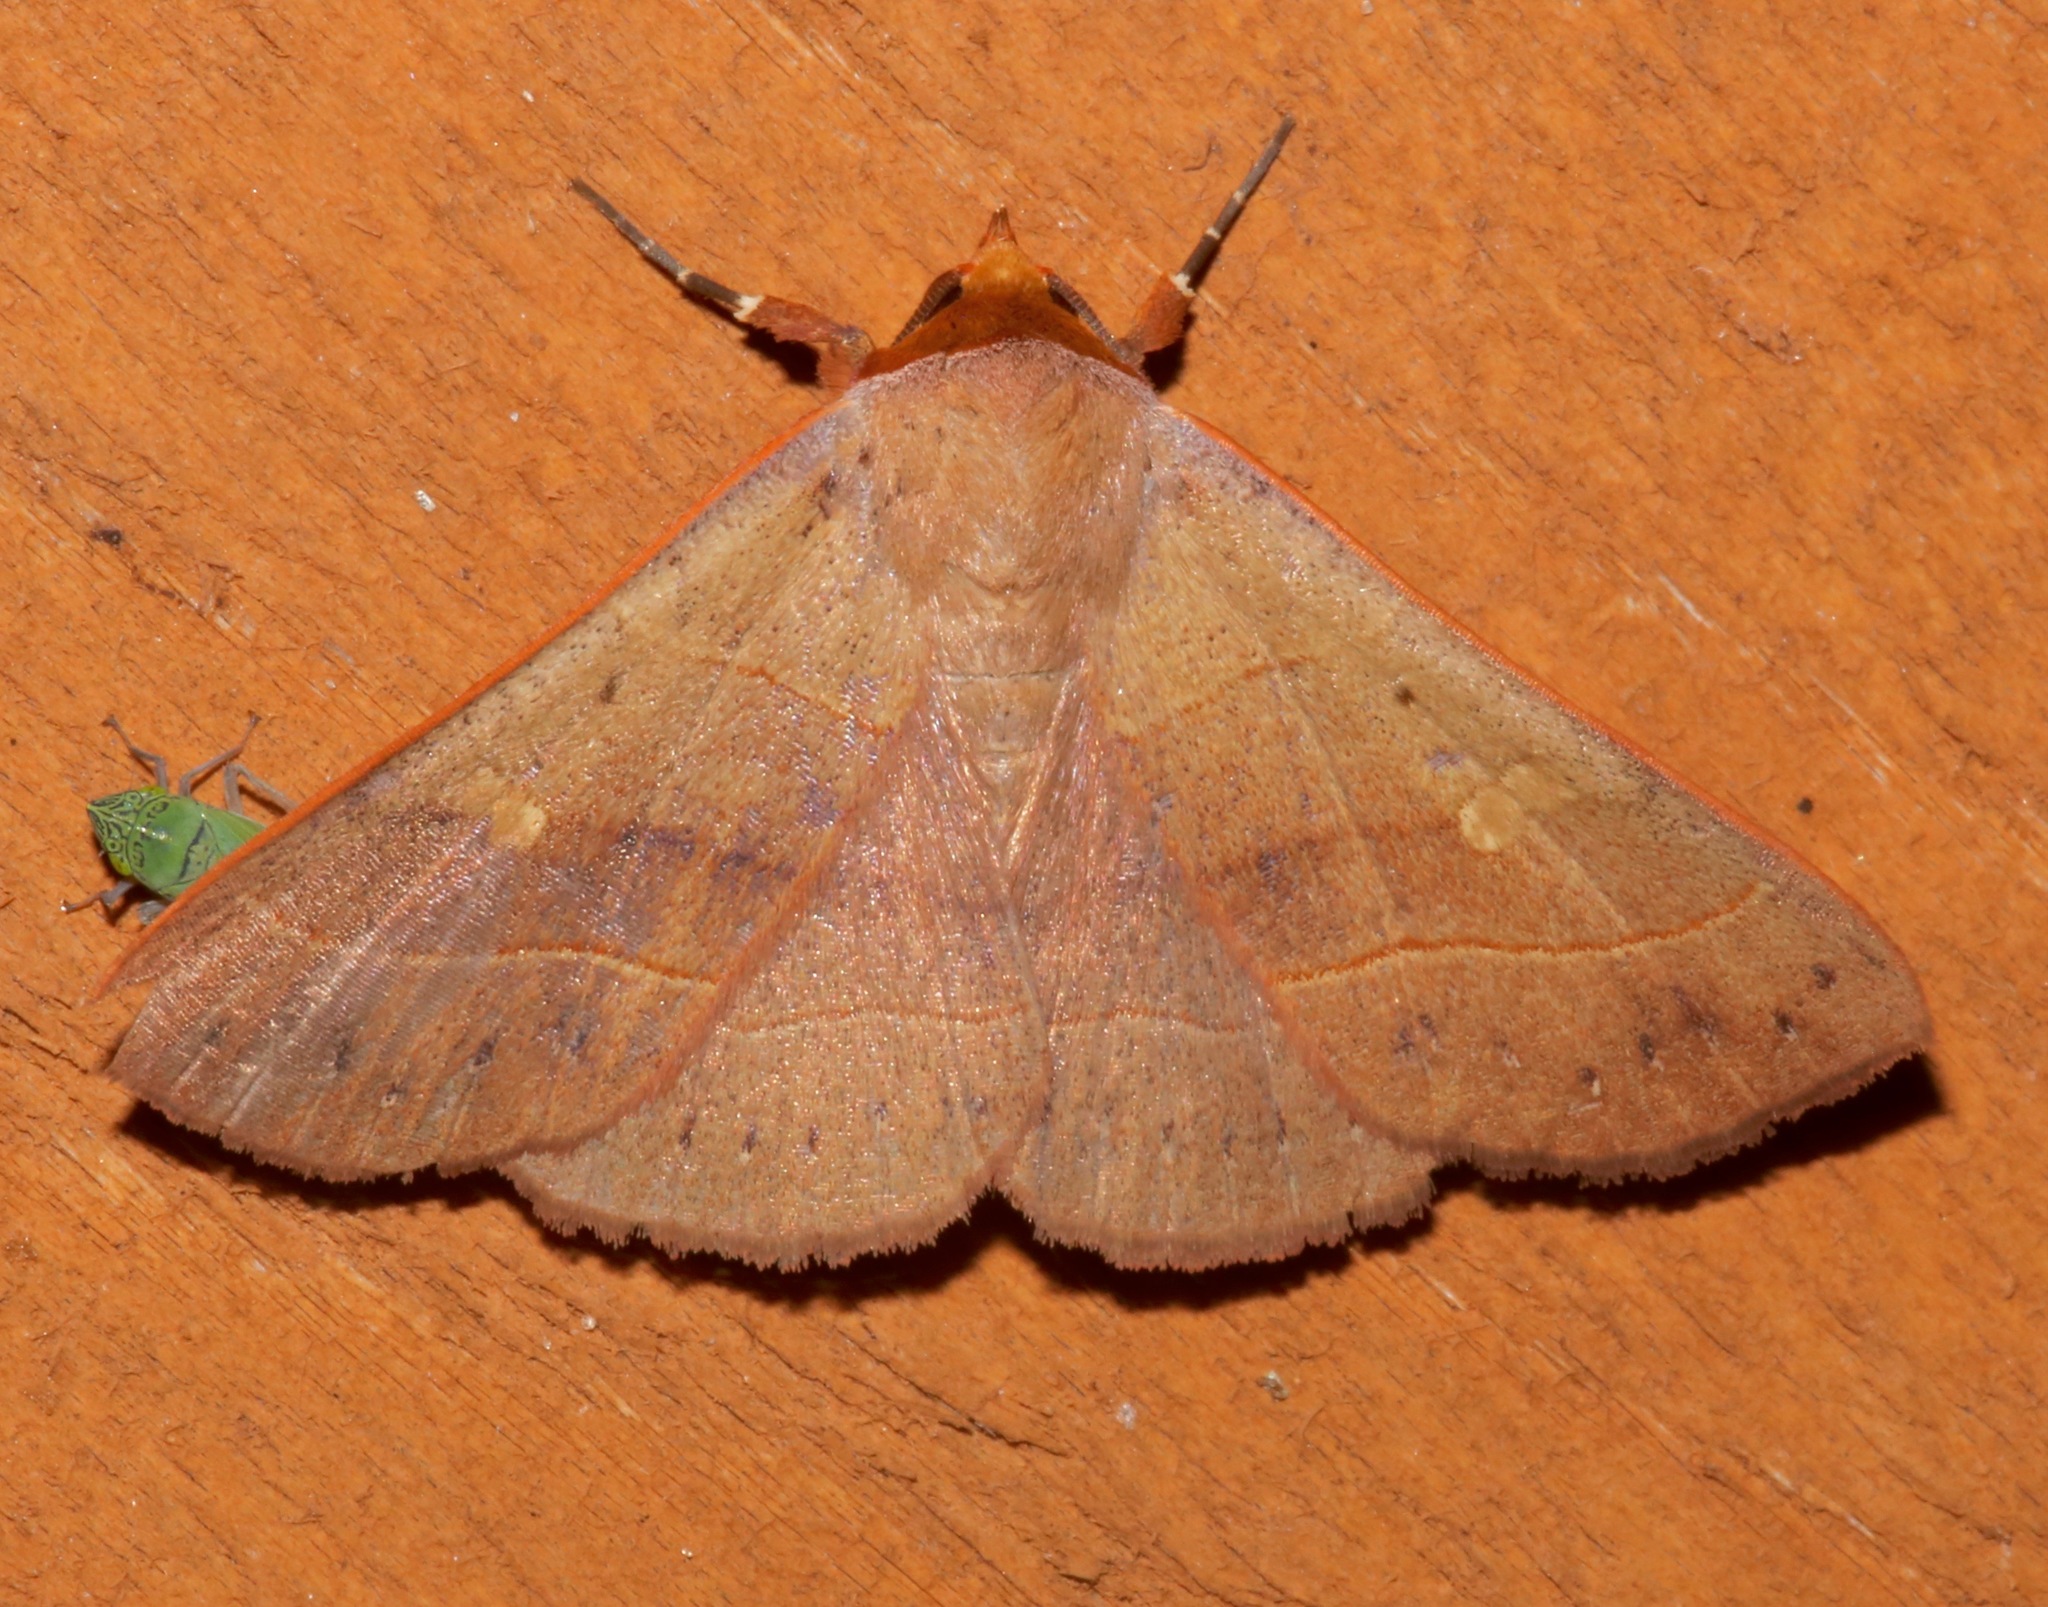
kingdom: Animalia
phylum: Arthropoda
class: Insecta
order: Lepidoptera
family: Erebidae
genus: Panopoda
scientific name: Panopoda rufimargo
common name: Red-lined panopoda moth
